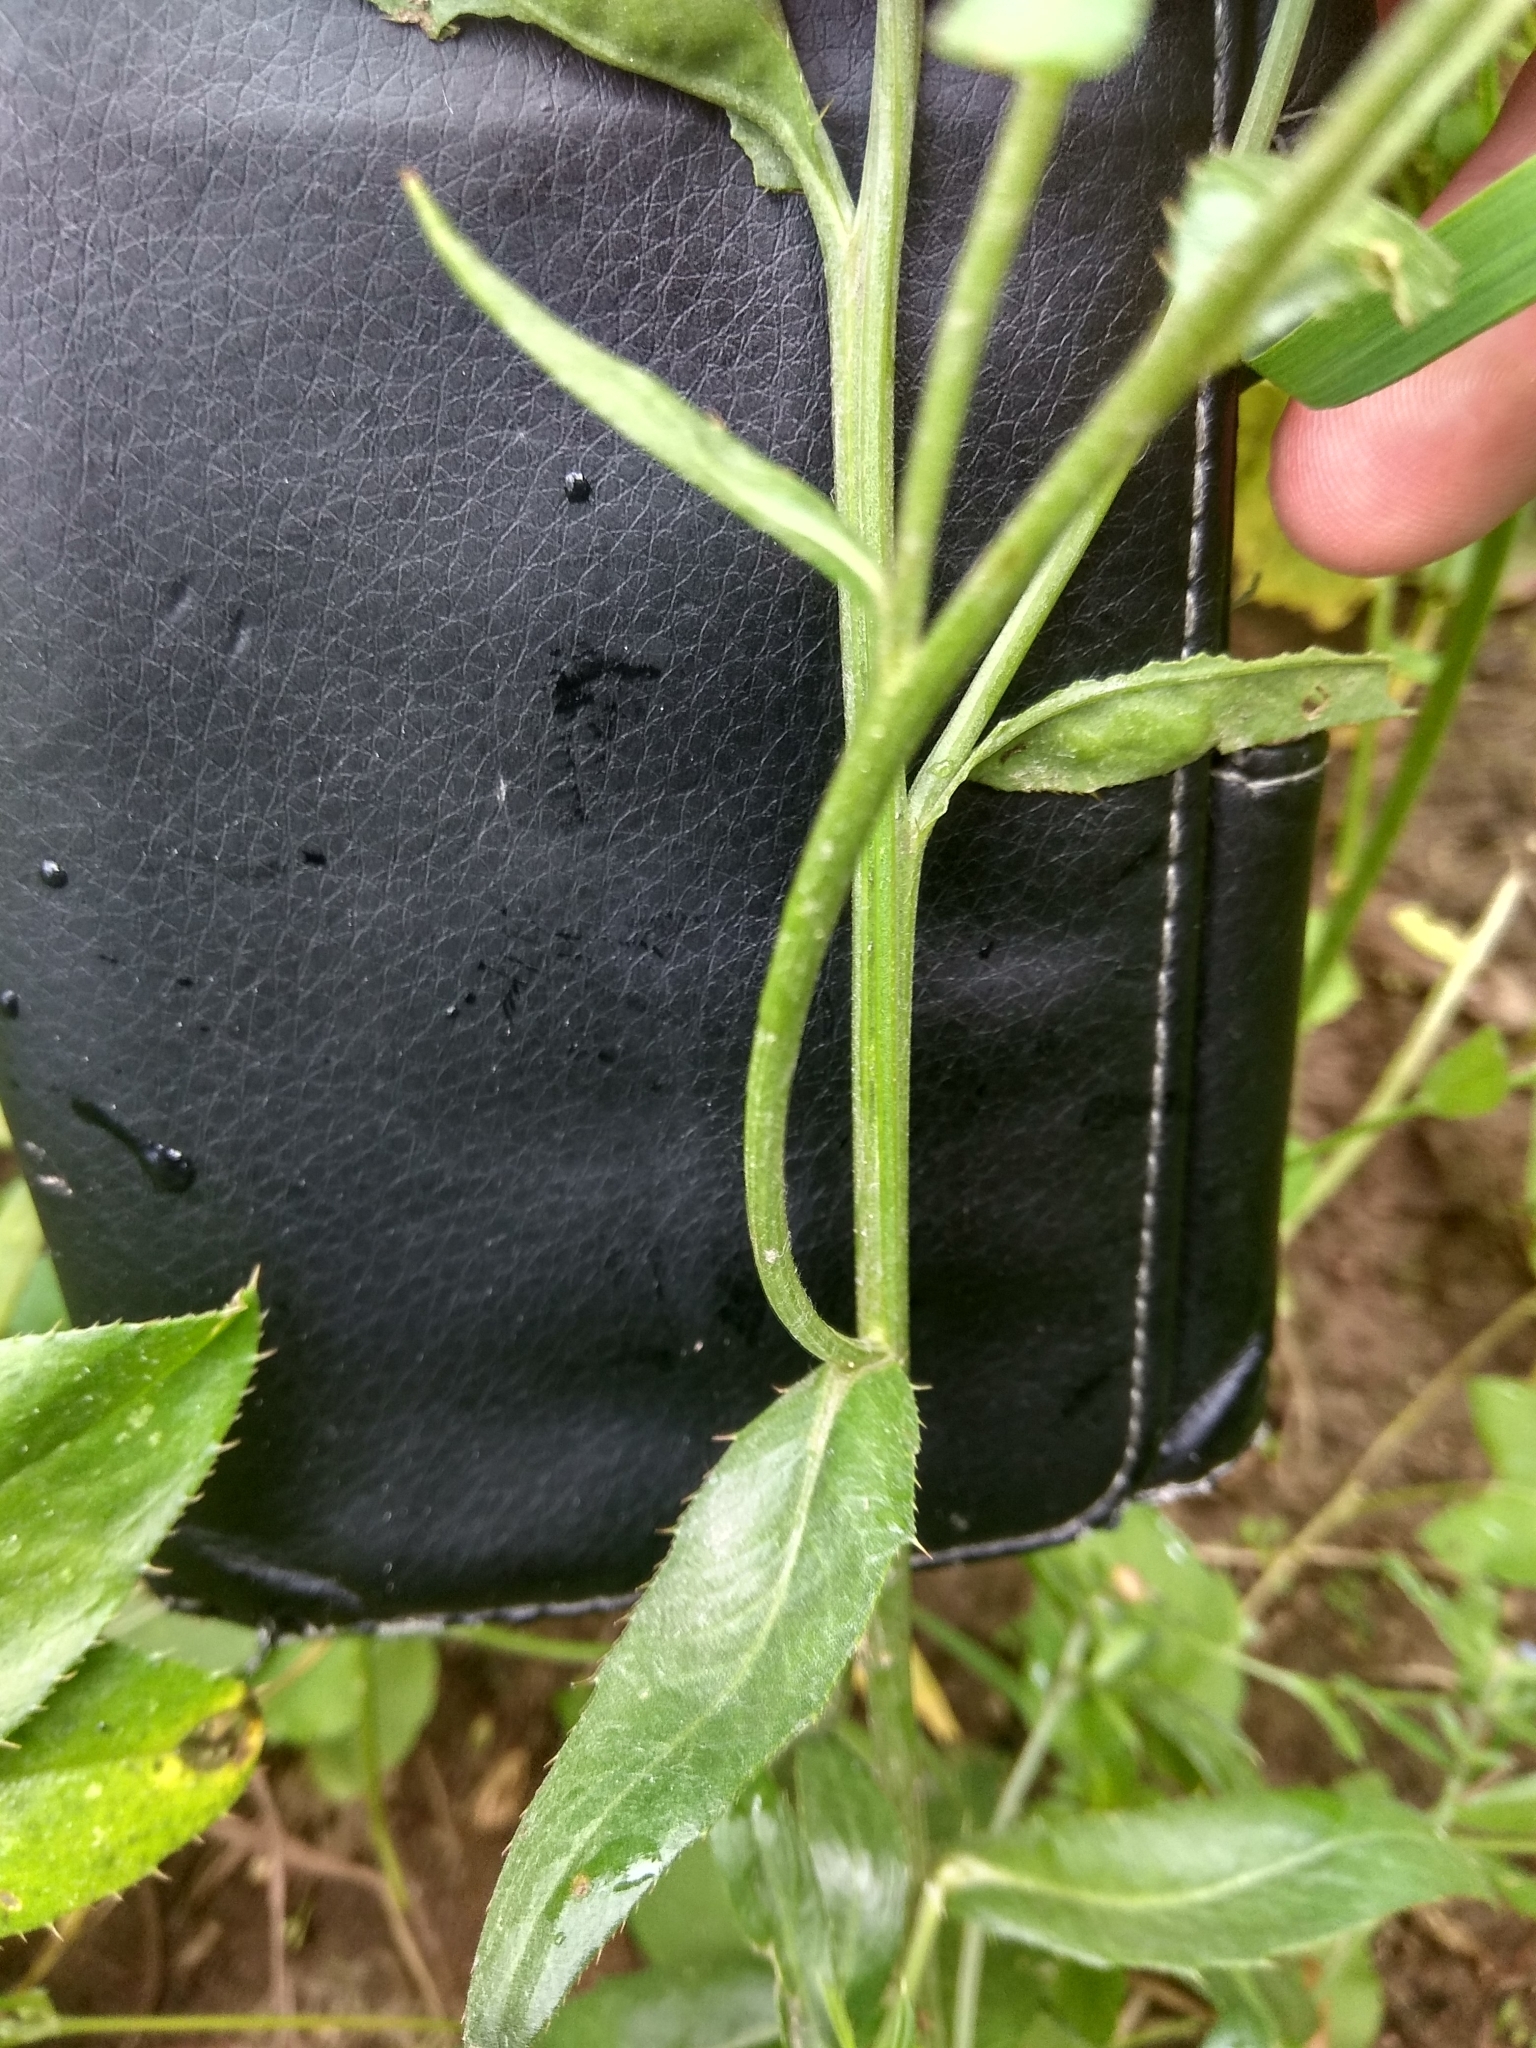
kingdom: Plantae
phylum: Tracheophyta
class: Magnoliopsida
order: Asterales
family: Asteraceae
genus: Cirsium
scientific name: Cirsium arvense
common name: Creeping thistle
